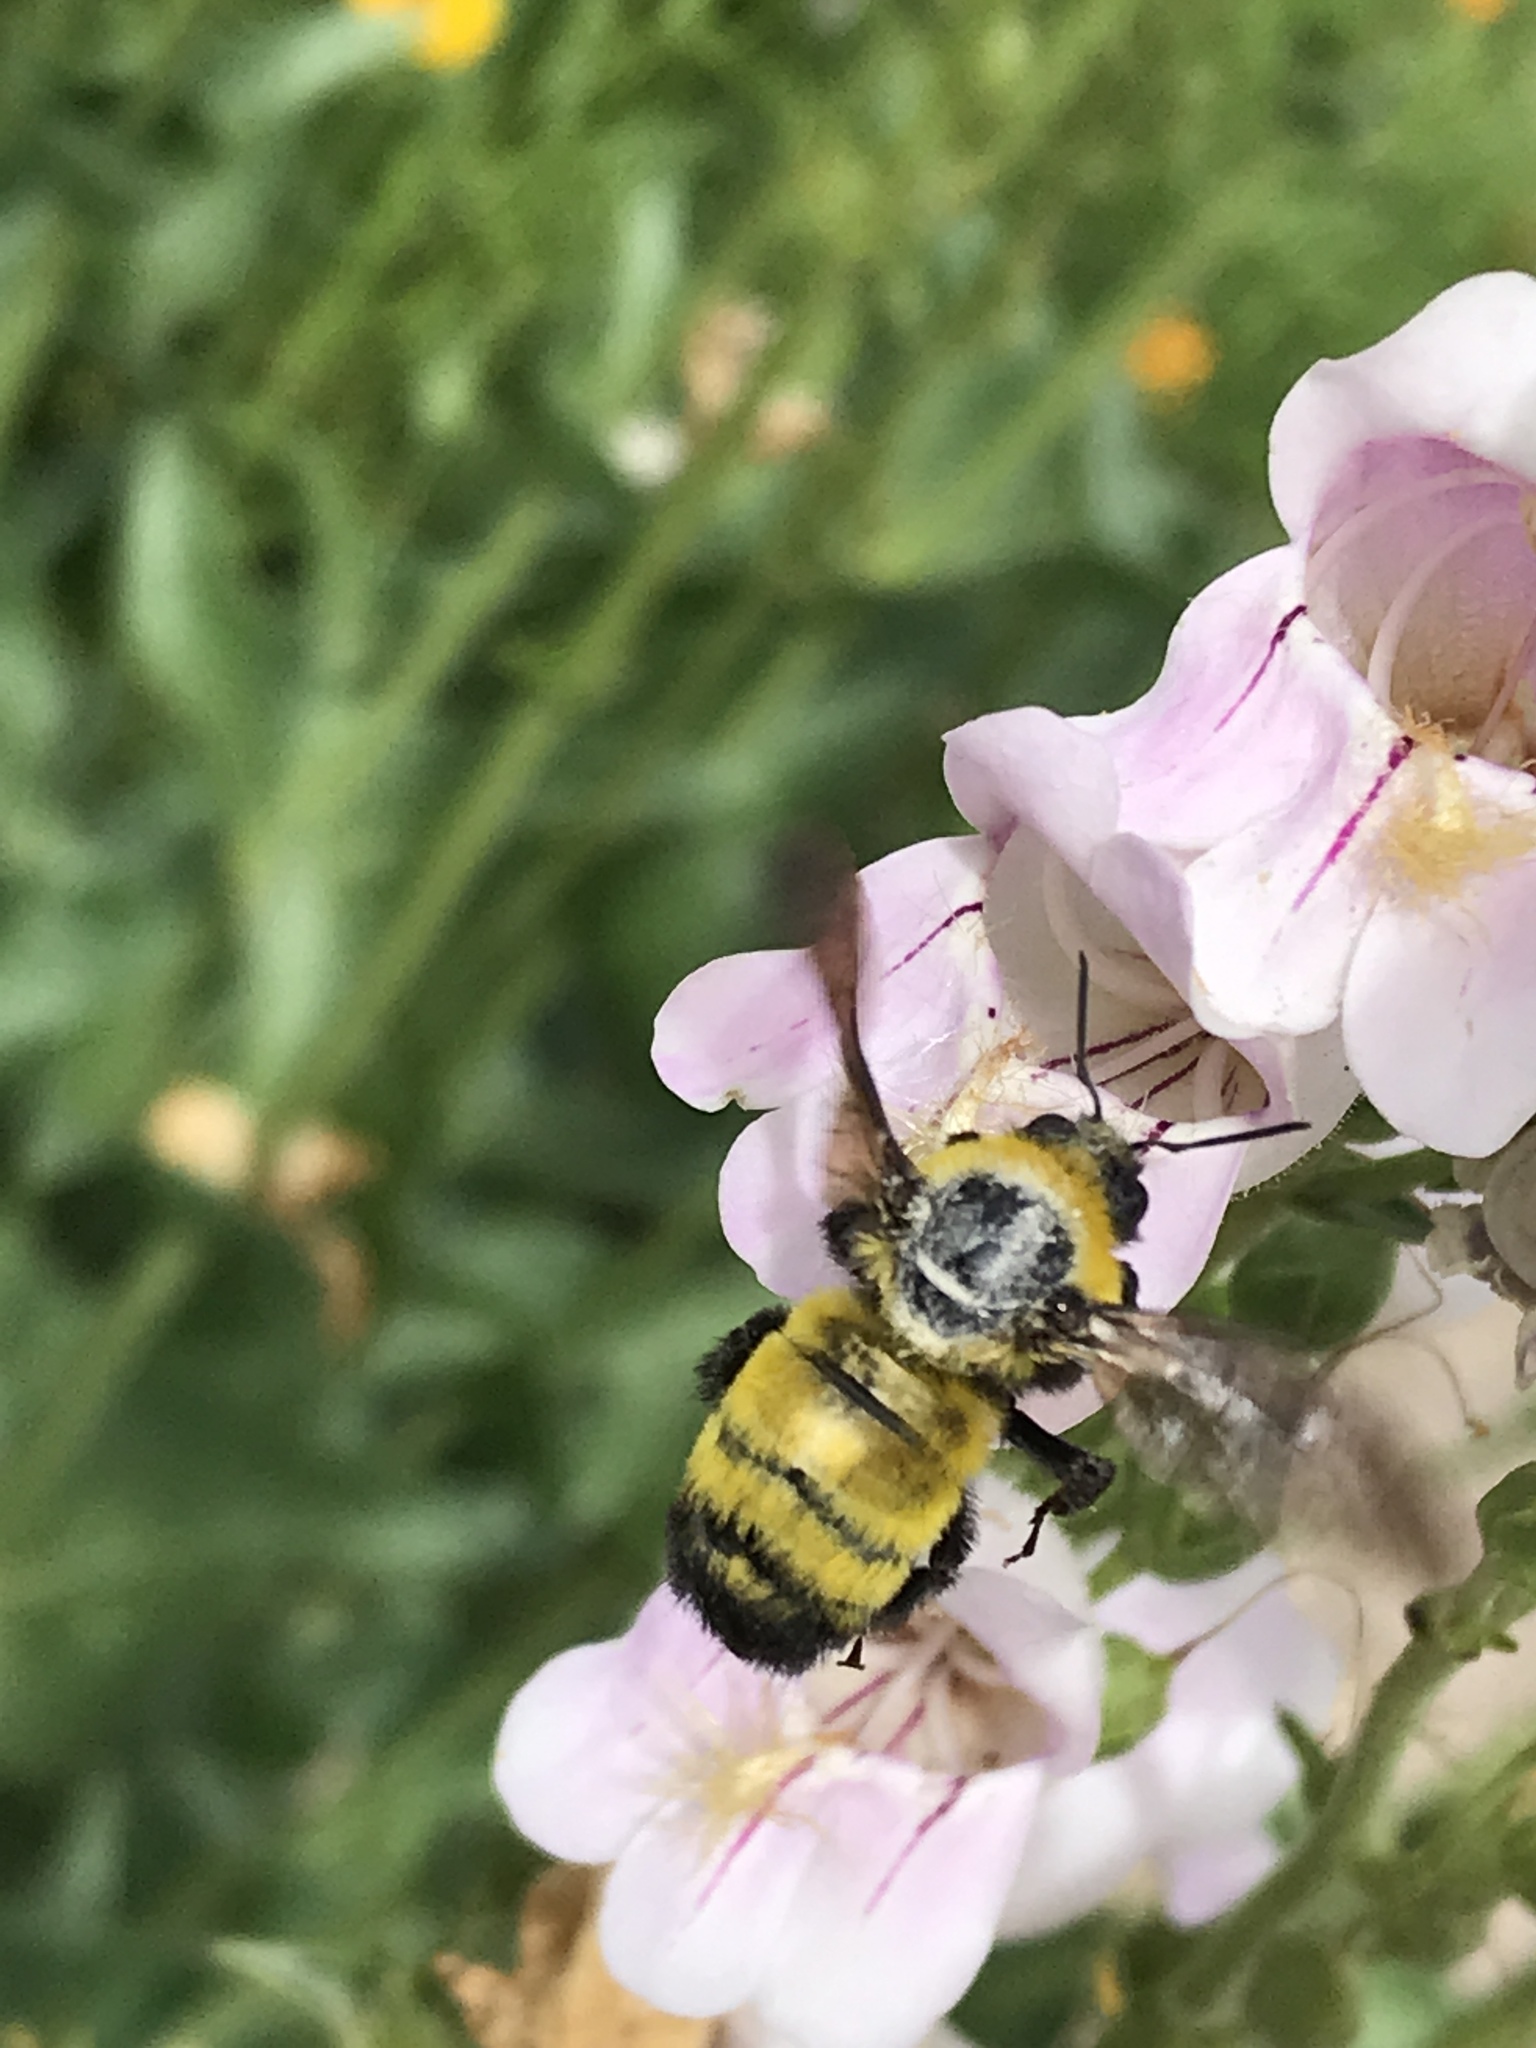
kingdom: Animalia
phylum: Arthropoda
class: Insecta
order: Hymenoptera
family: Apidae
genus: Bombus
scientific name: Bombus morrisoni
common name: Morrison bumble bee
